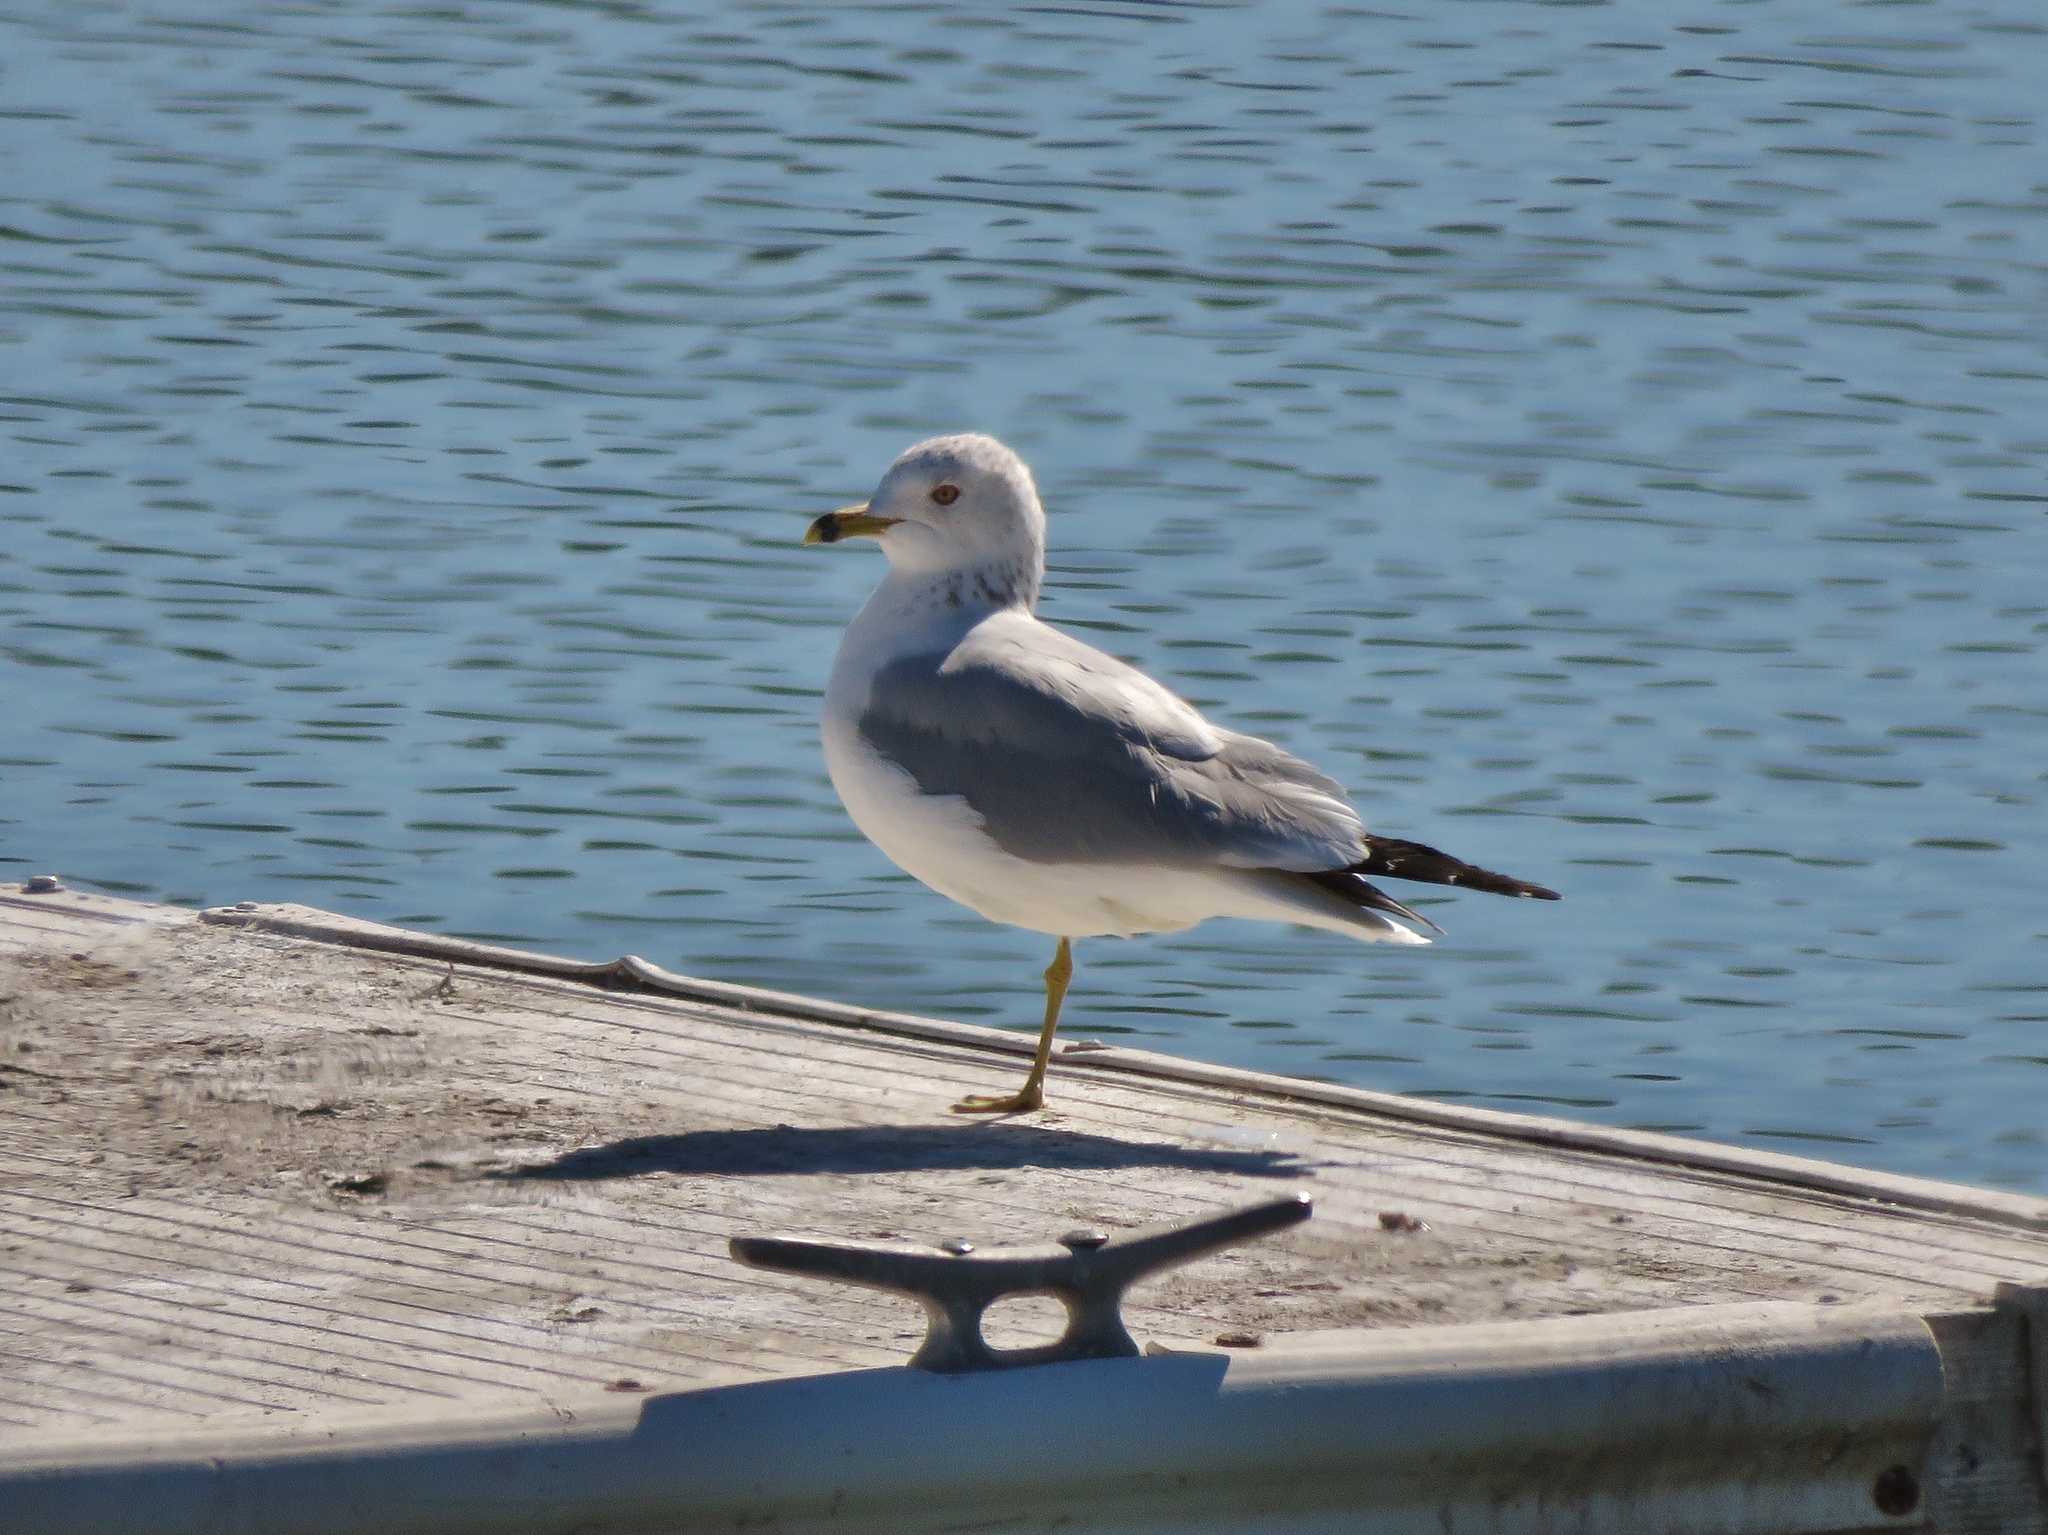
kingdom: Animalia
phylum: Chordata
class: Aves
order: Charadriiformes
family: Laridae
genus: Larus
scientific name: Larus delawarensis
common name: Ring-billed gull
